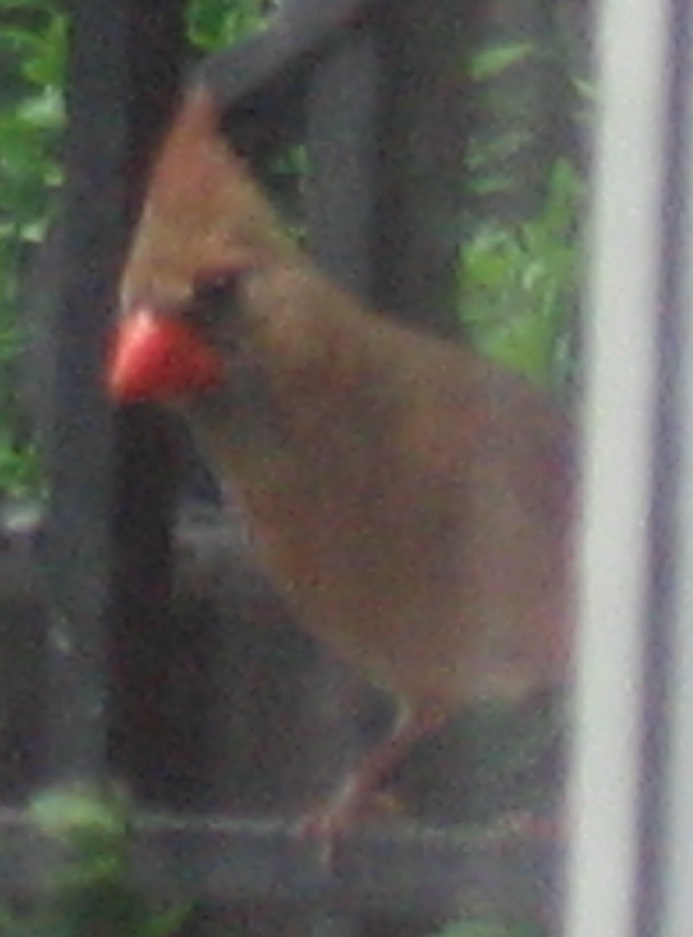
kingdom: Animalia
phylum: Chordata
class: Aves
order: Passeriformes
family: Cardinalidae
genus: Cardinalis
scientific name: Cardinalis cardinalis
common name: Northern cardinal
